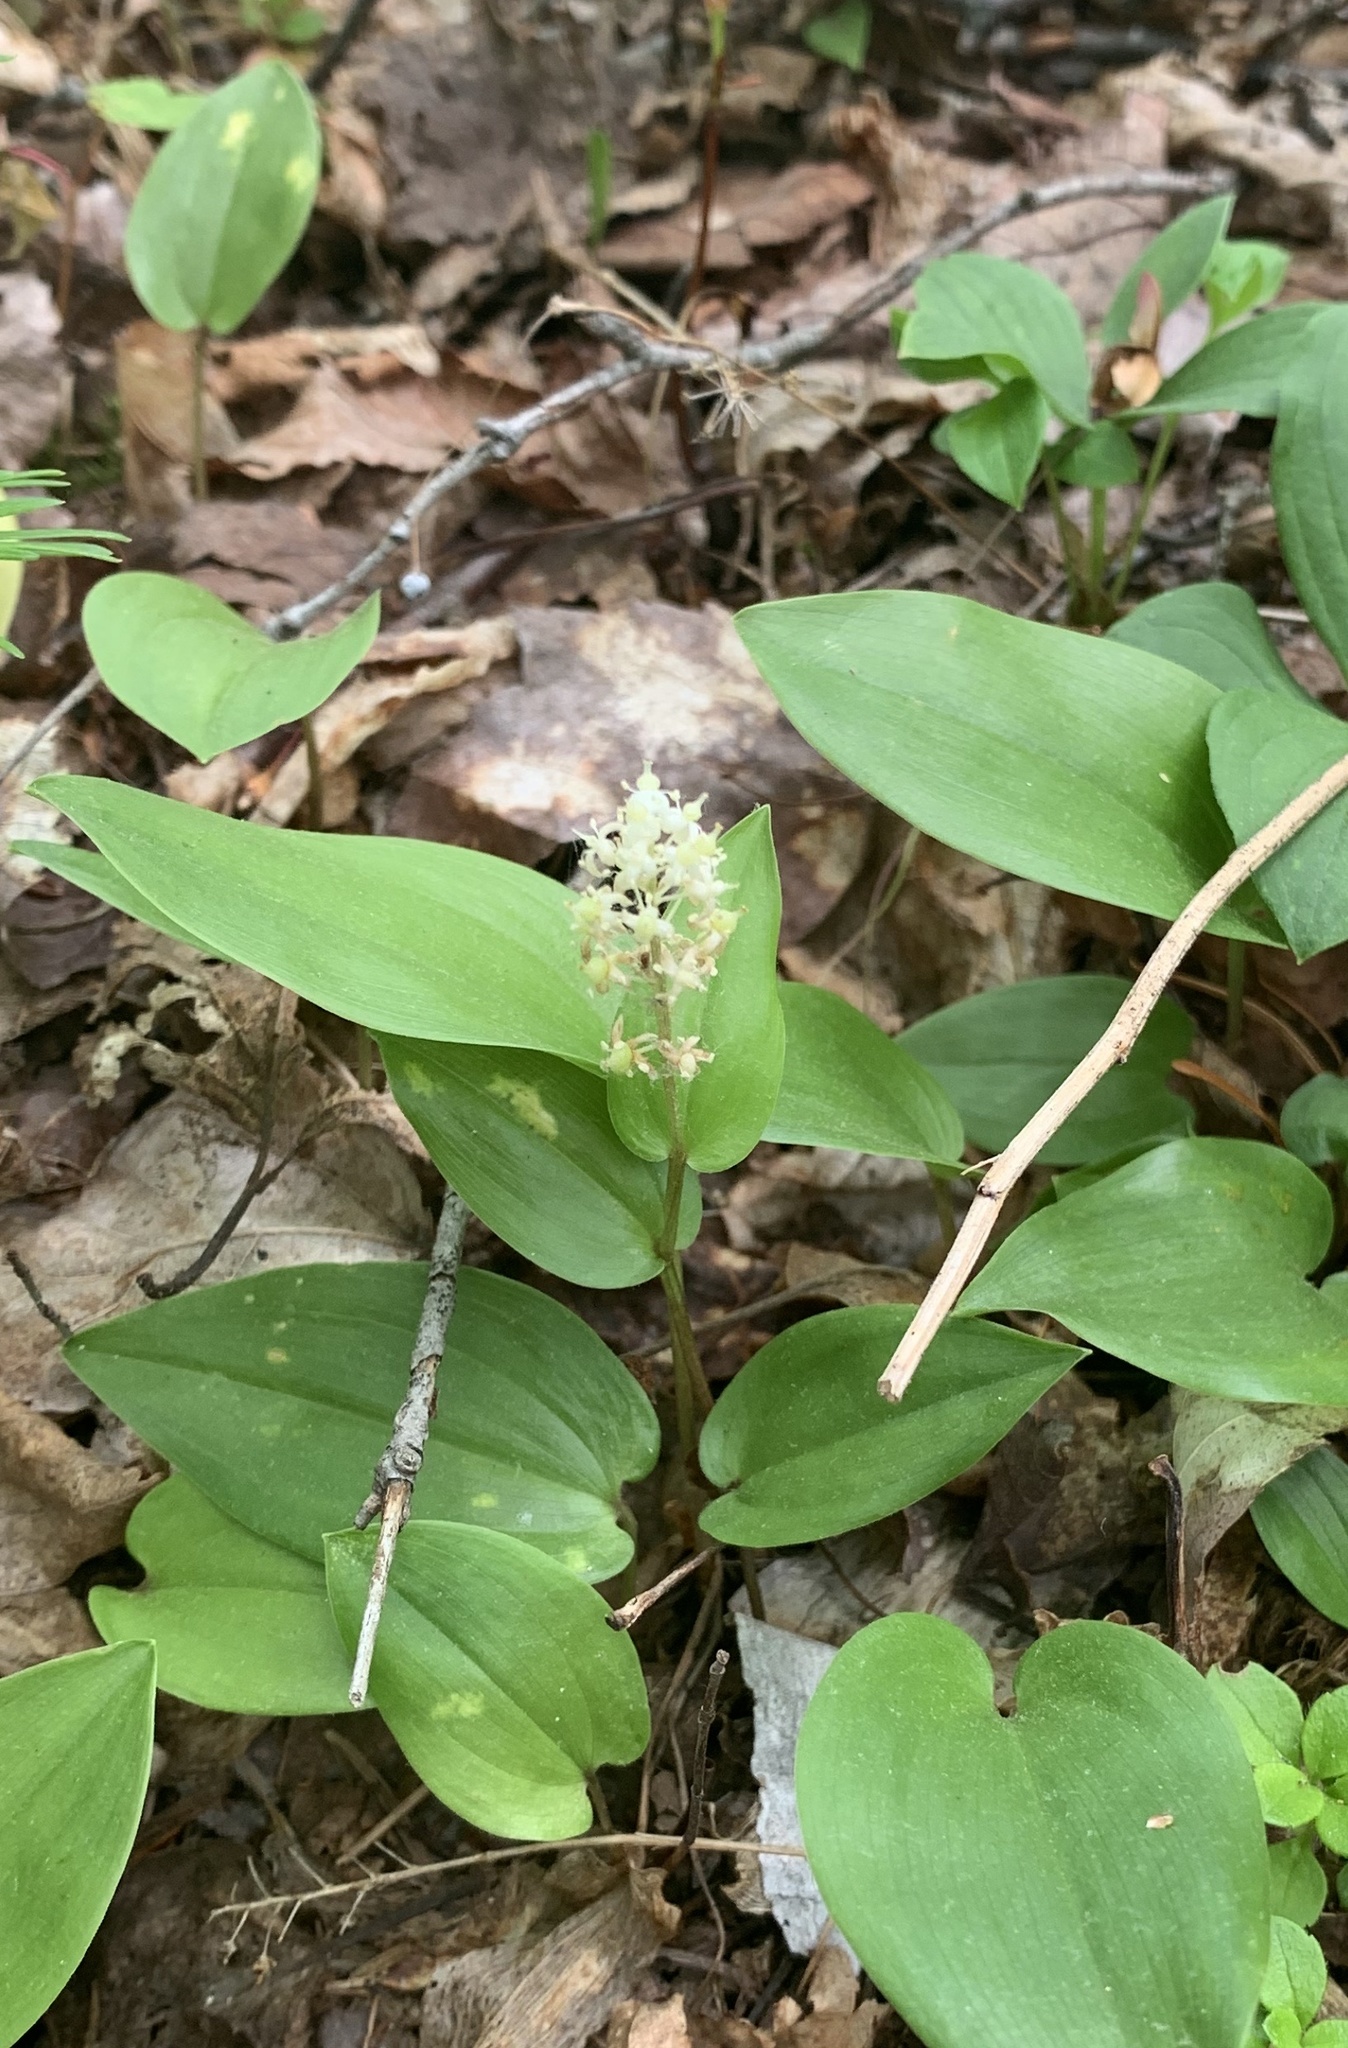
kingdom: Plantae
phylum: Tracheophyta
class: Liliopsida
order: Asparagales
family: Asparagaceae
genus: Maianthemum
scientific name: Maianthemum canadense
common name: False lily-of-the-valley
